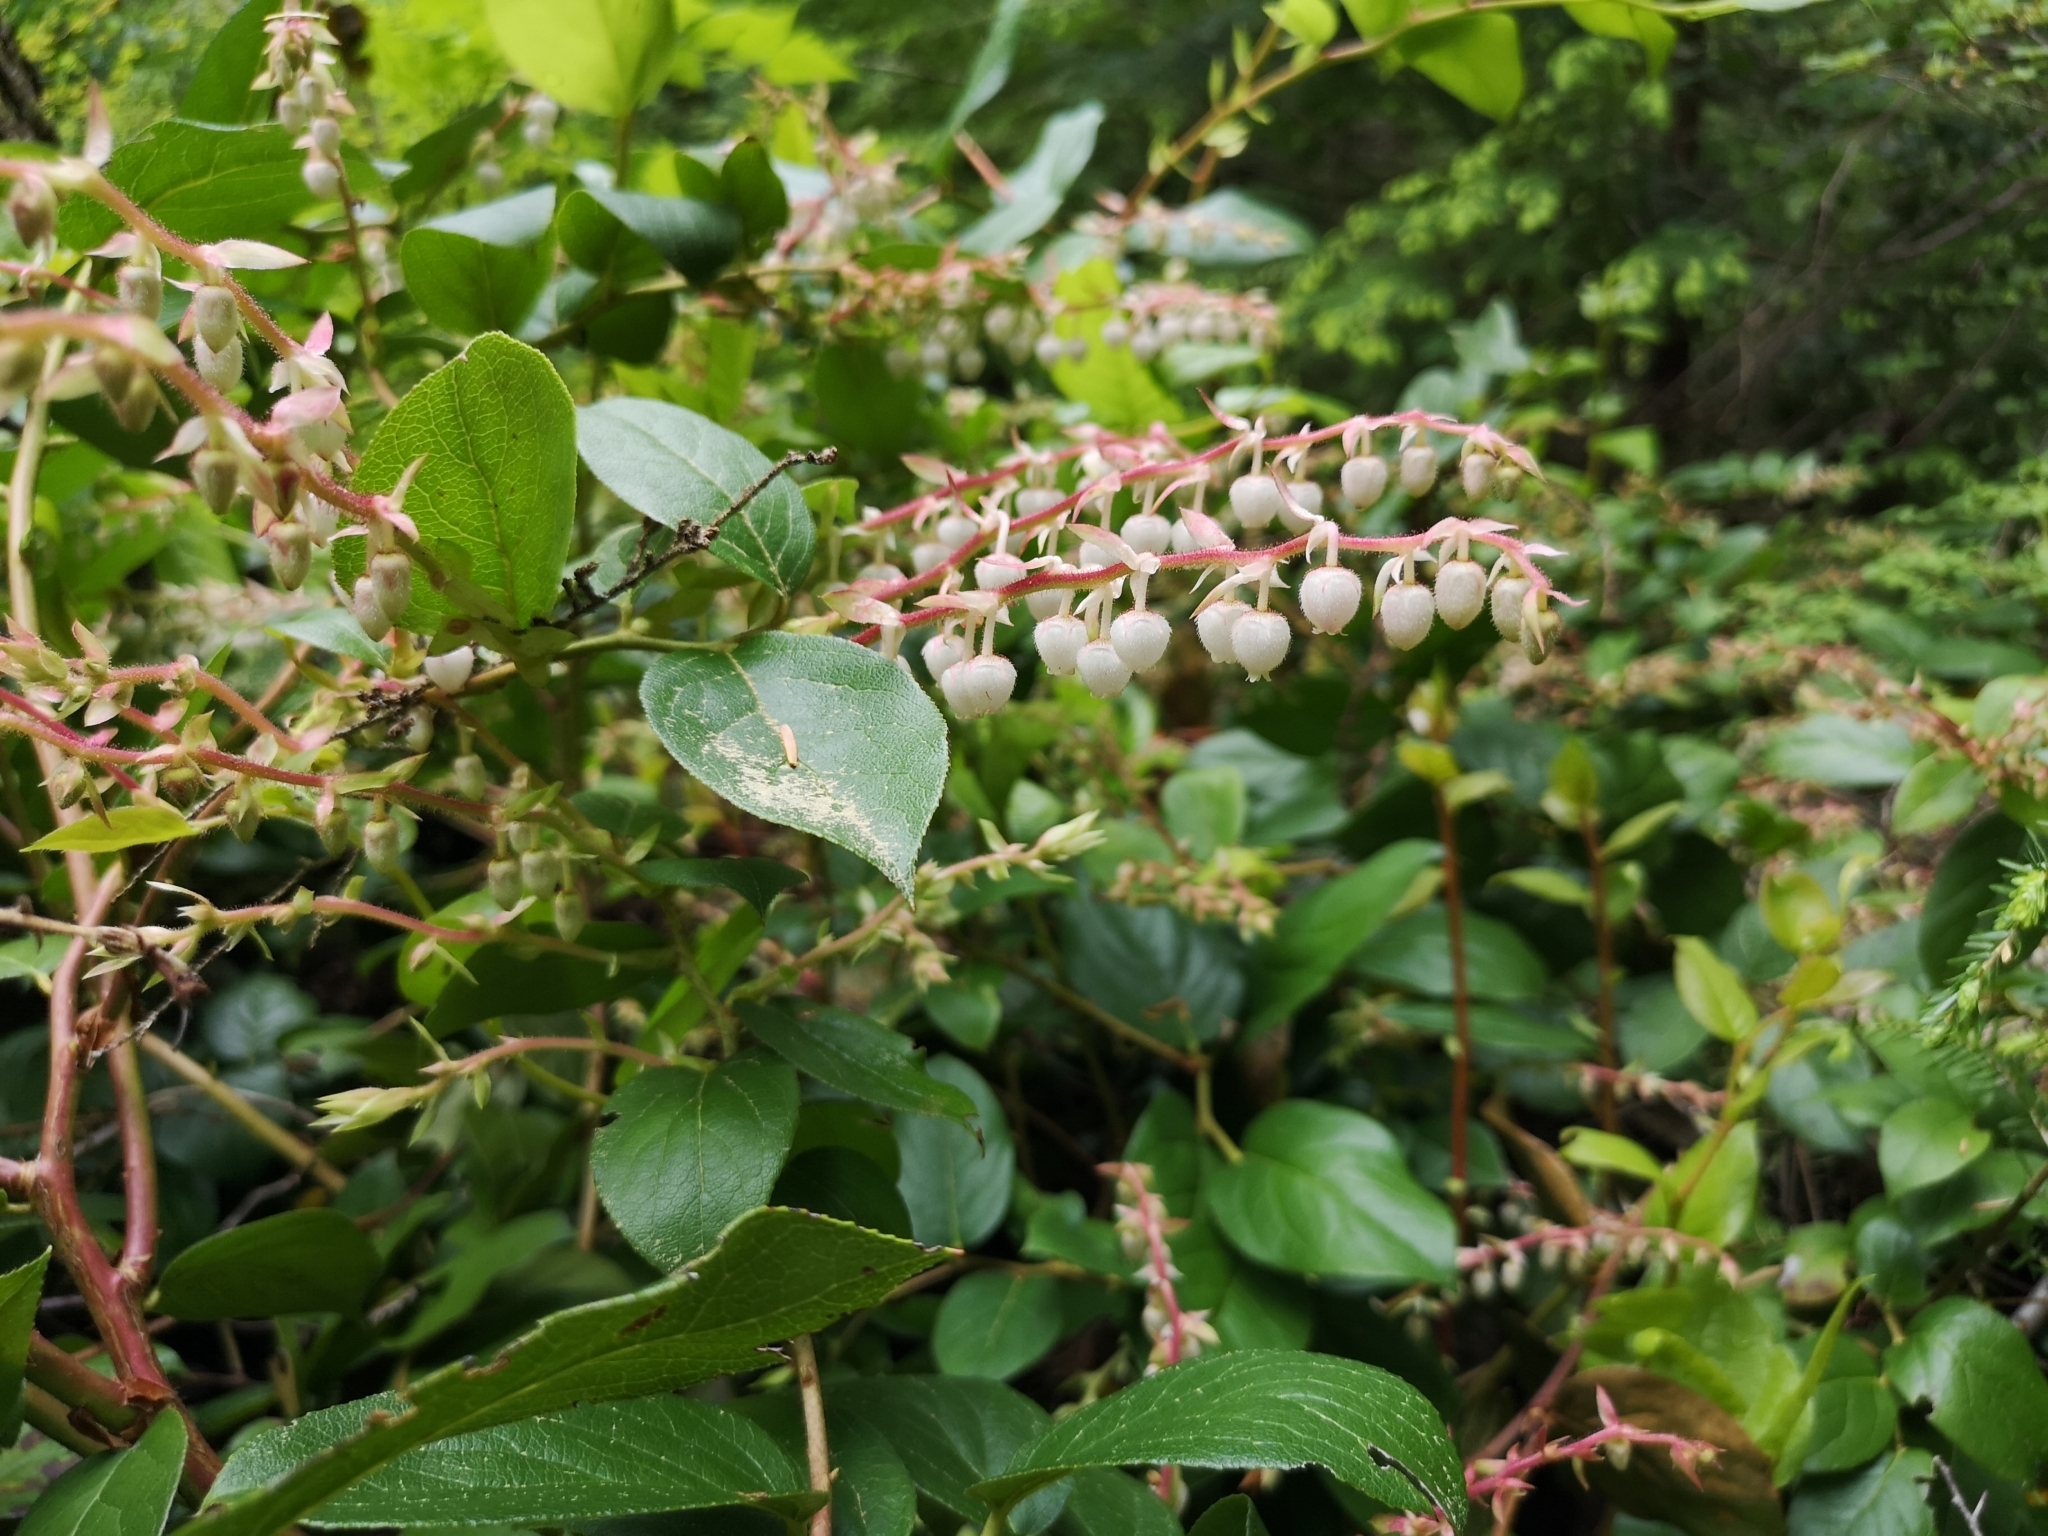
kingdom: Plantae
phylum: Tracheophyta
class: Magnoliopsida
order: Ericales
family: Ericaceae
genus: Gaultheria
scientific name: Gaultheria shallon
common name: Shallon
